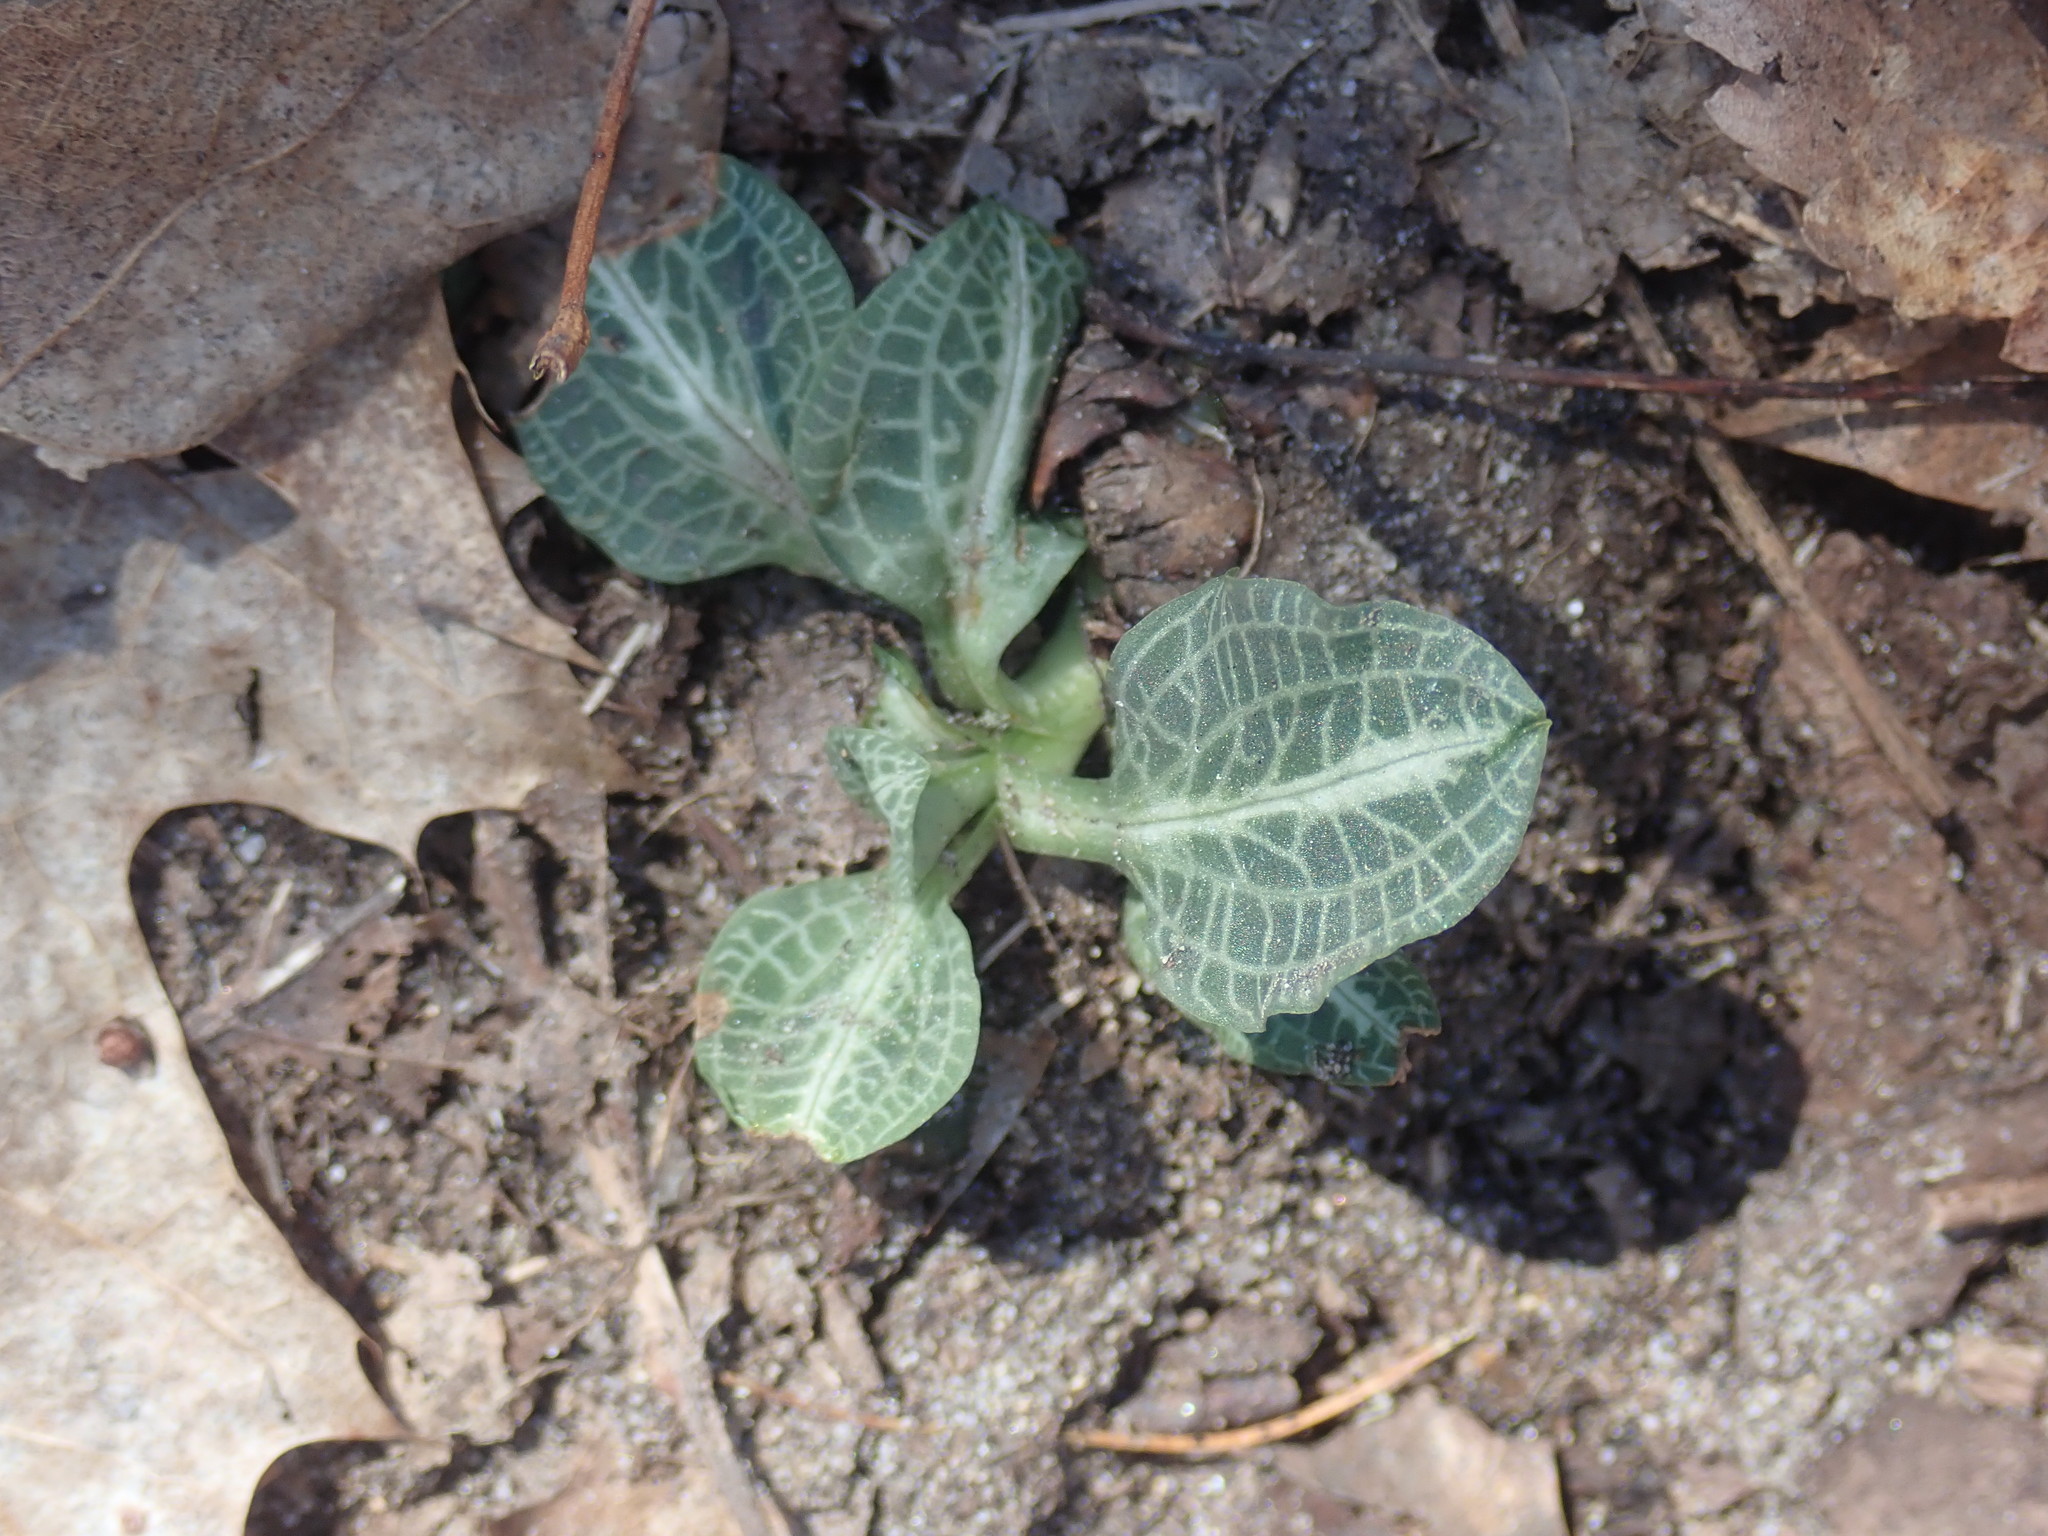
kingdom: Plantae
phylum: Tracheophyta
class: Liliopsida
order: Asparagales
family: Orchidaceae
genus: Goodyera
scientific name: Goodyera pubescens
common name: Downy rattlesnake-plantain
